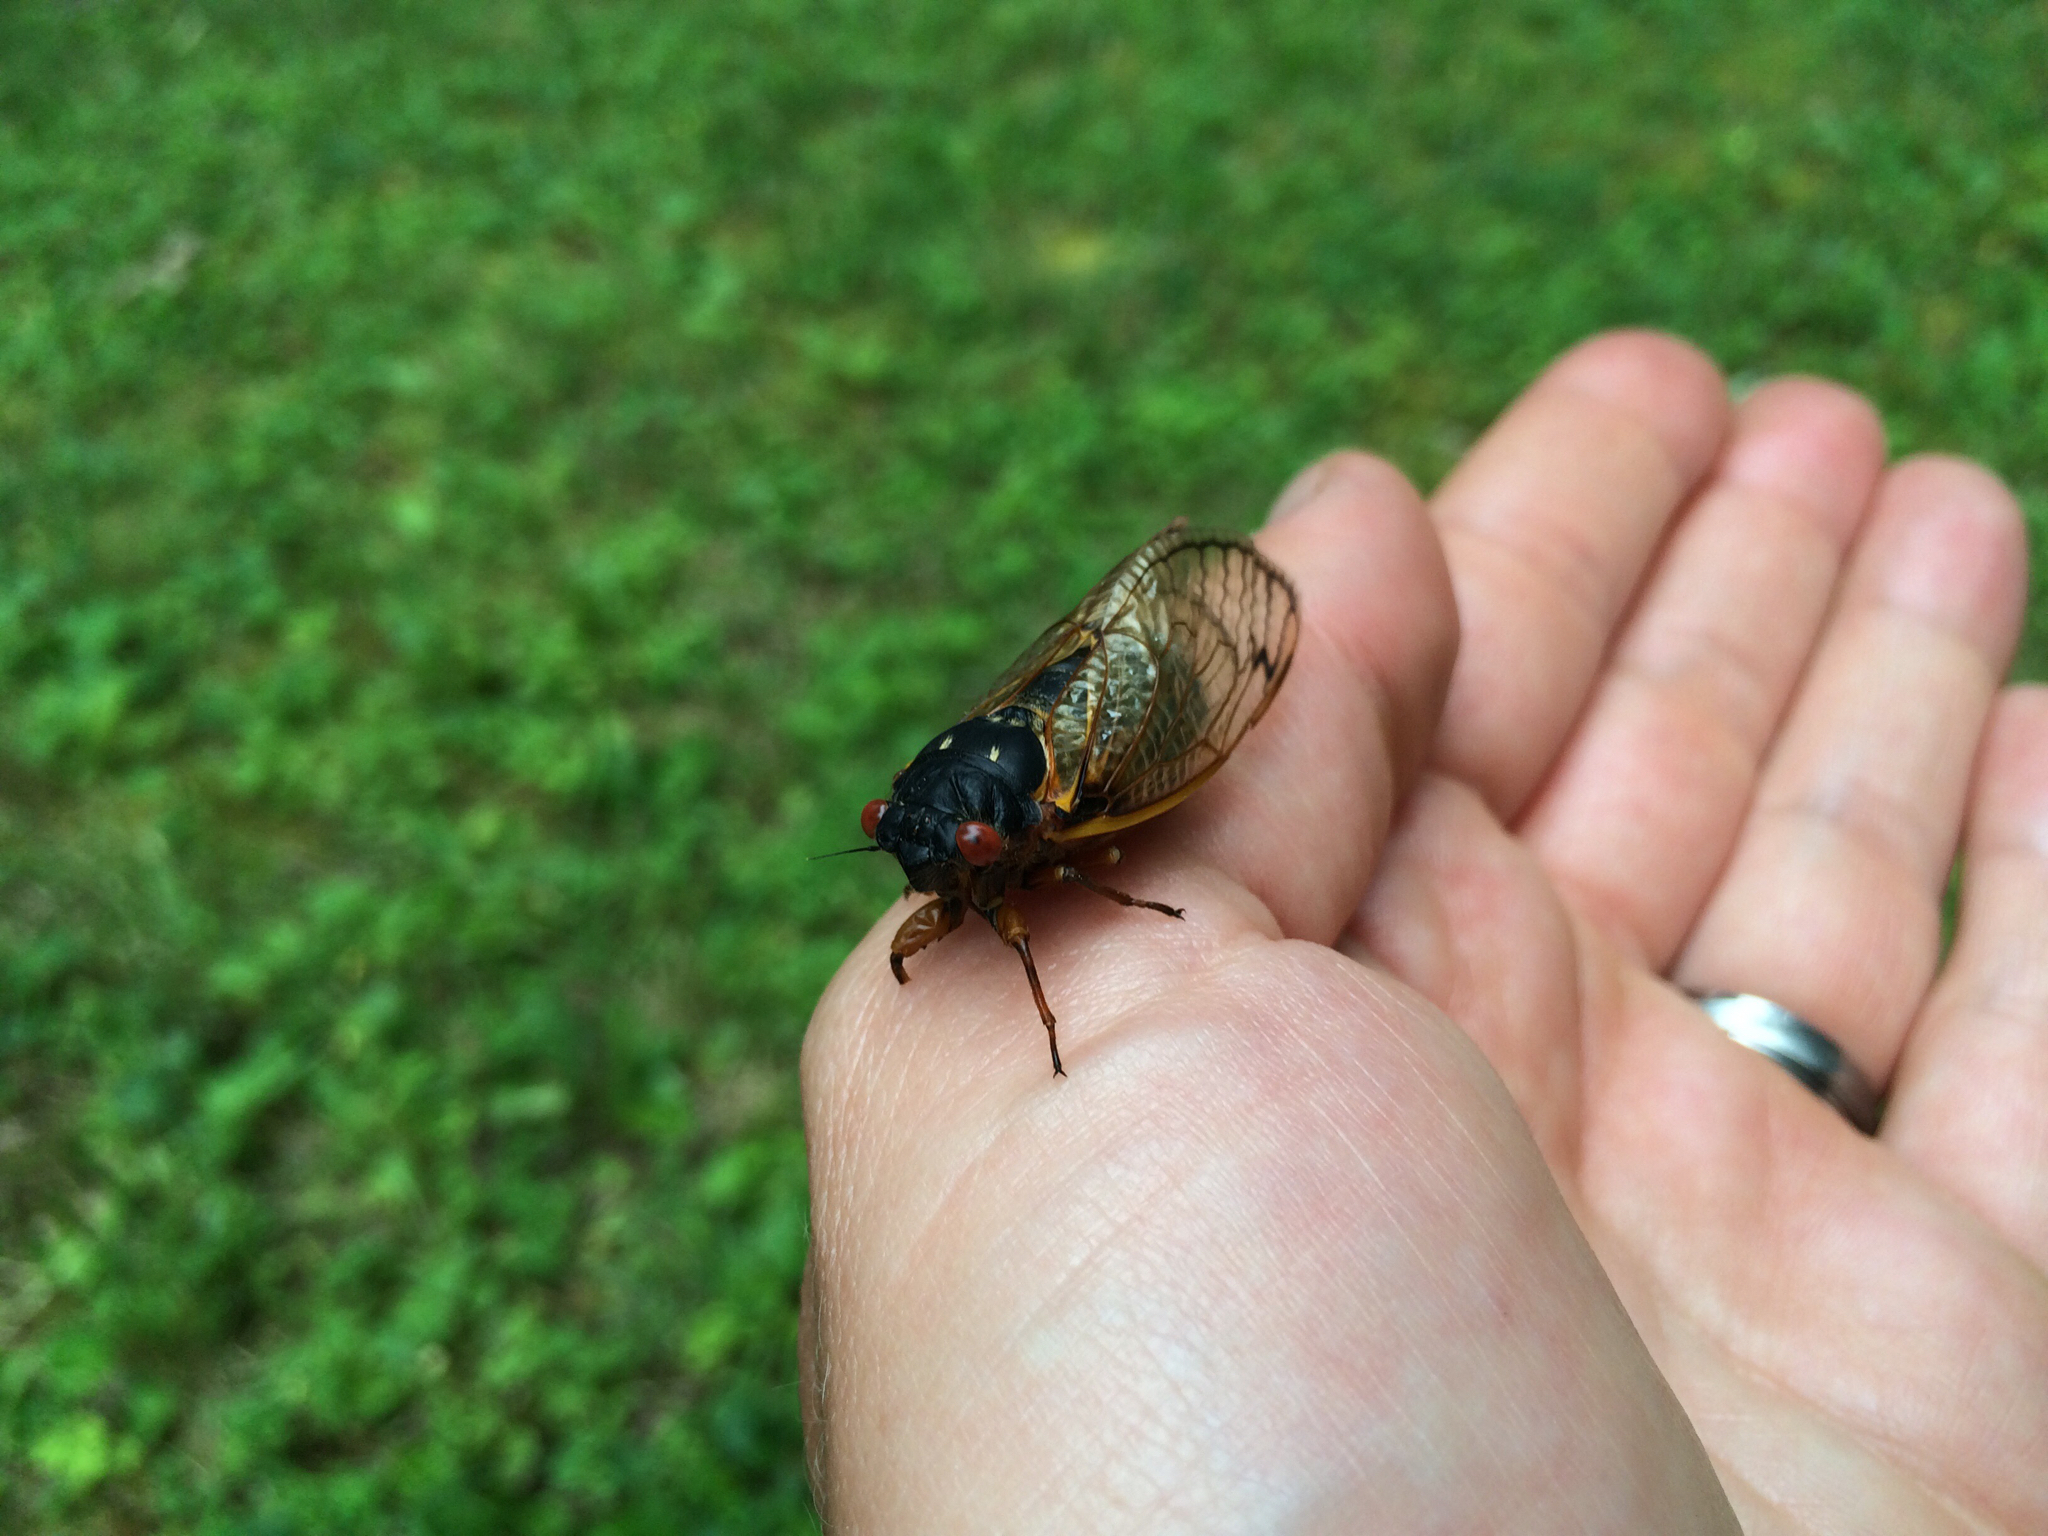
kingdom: Animalia
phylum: Arthropoda
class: Insecta
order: Hemiptera
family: Cicadidae
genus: Magicicada
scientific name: Magicicada
